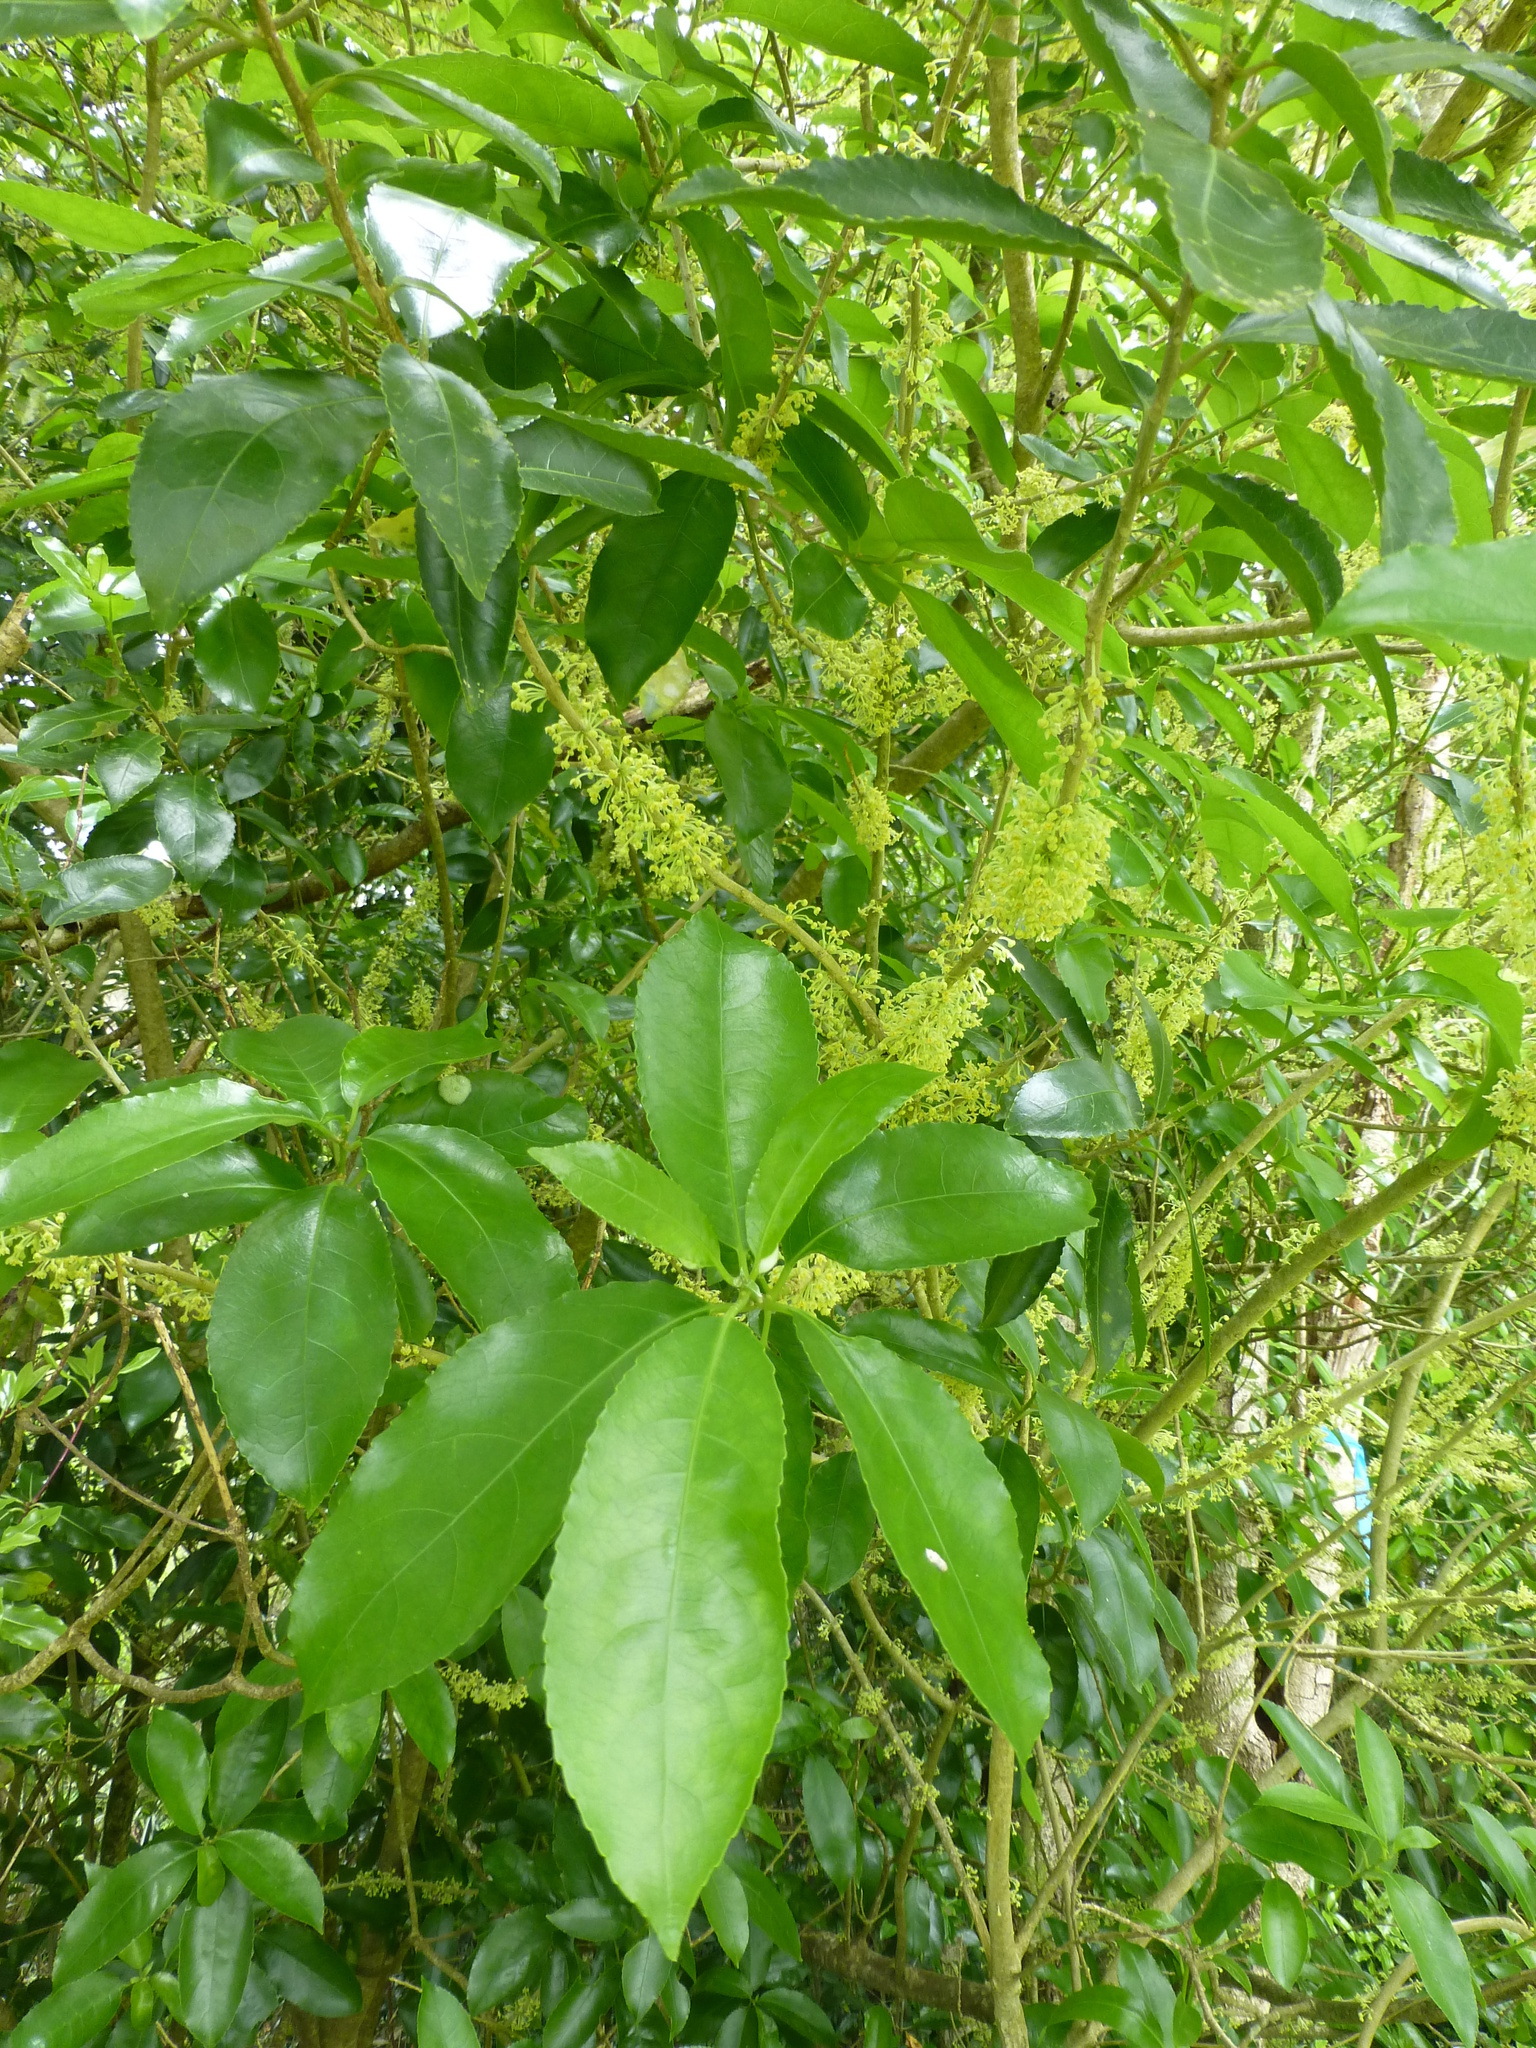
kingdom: Plantae
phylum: Tracheophyta
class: Magnoliopsida
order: Malpighiales
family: Violaceae
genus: Melicytus
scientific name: Melicytus ramiflorus
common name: Mahoe
